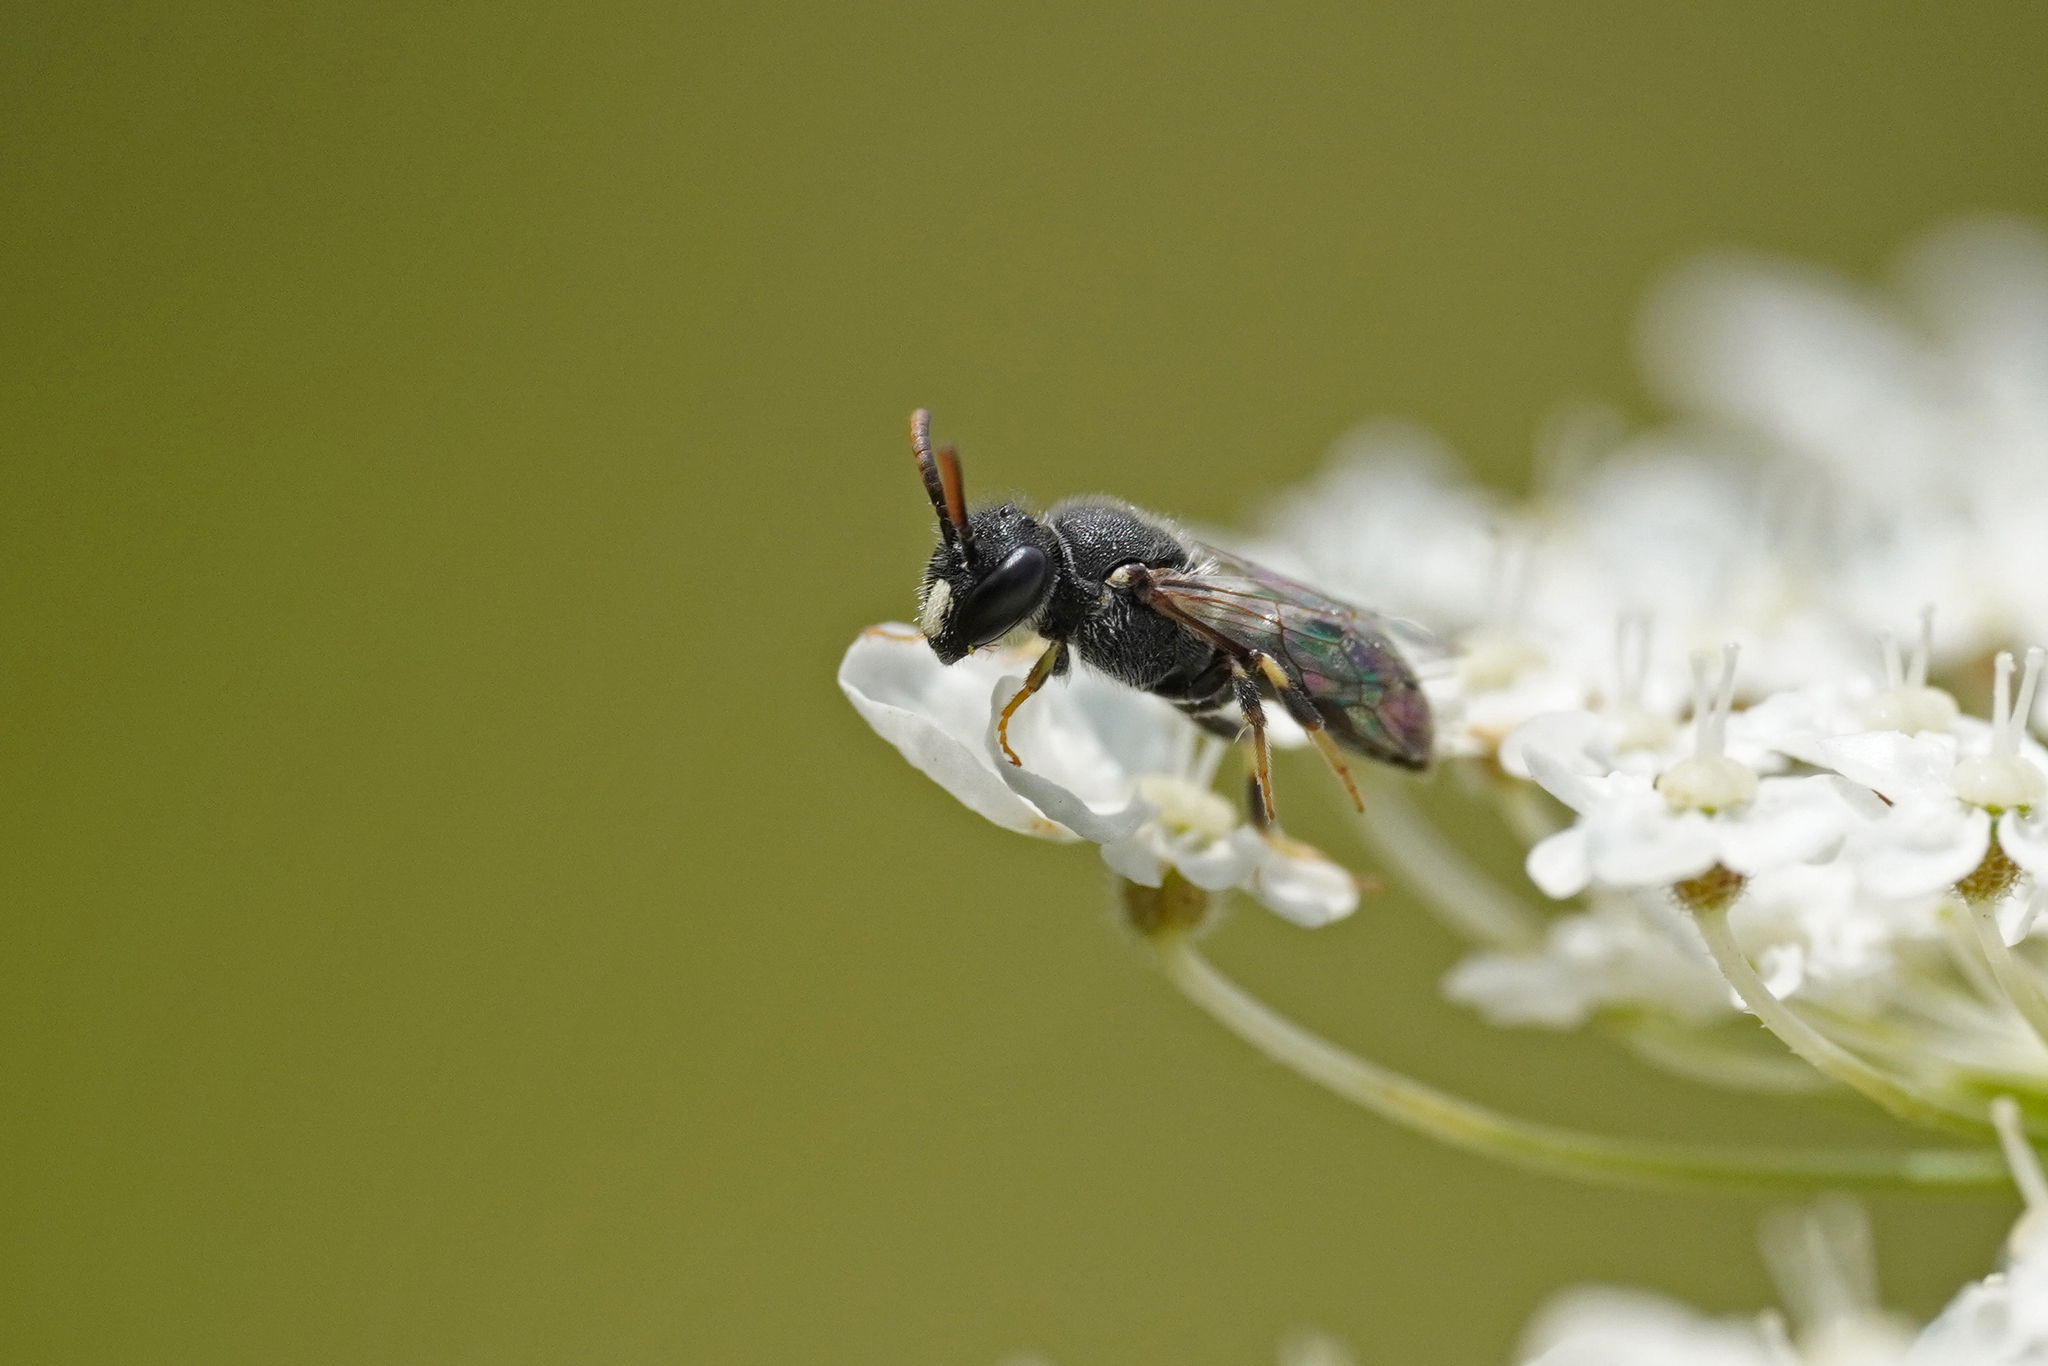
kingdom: Animalia
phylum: Arthropoda
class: Insecta
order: Hymenoptera
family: Colletidae
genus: Hylaeus
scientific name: Hylaeus punctatus
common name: Punctate masked bee
